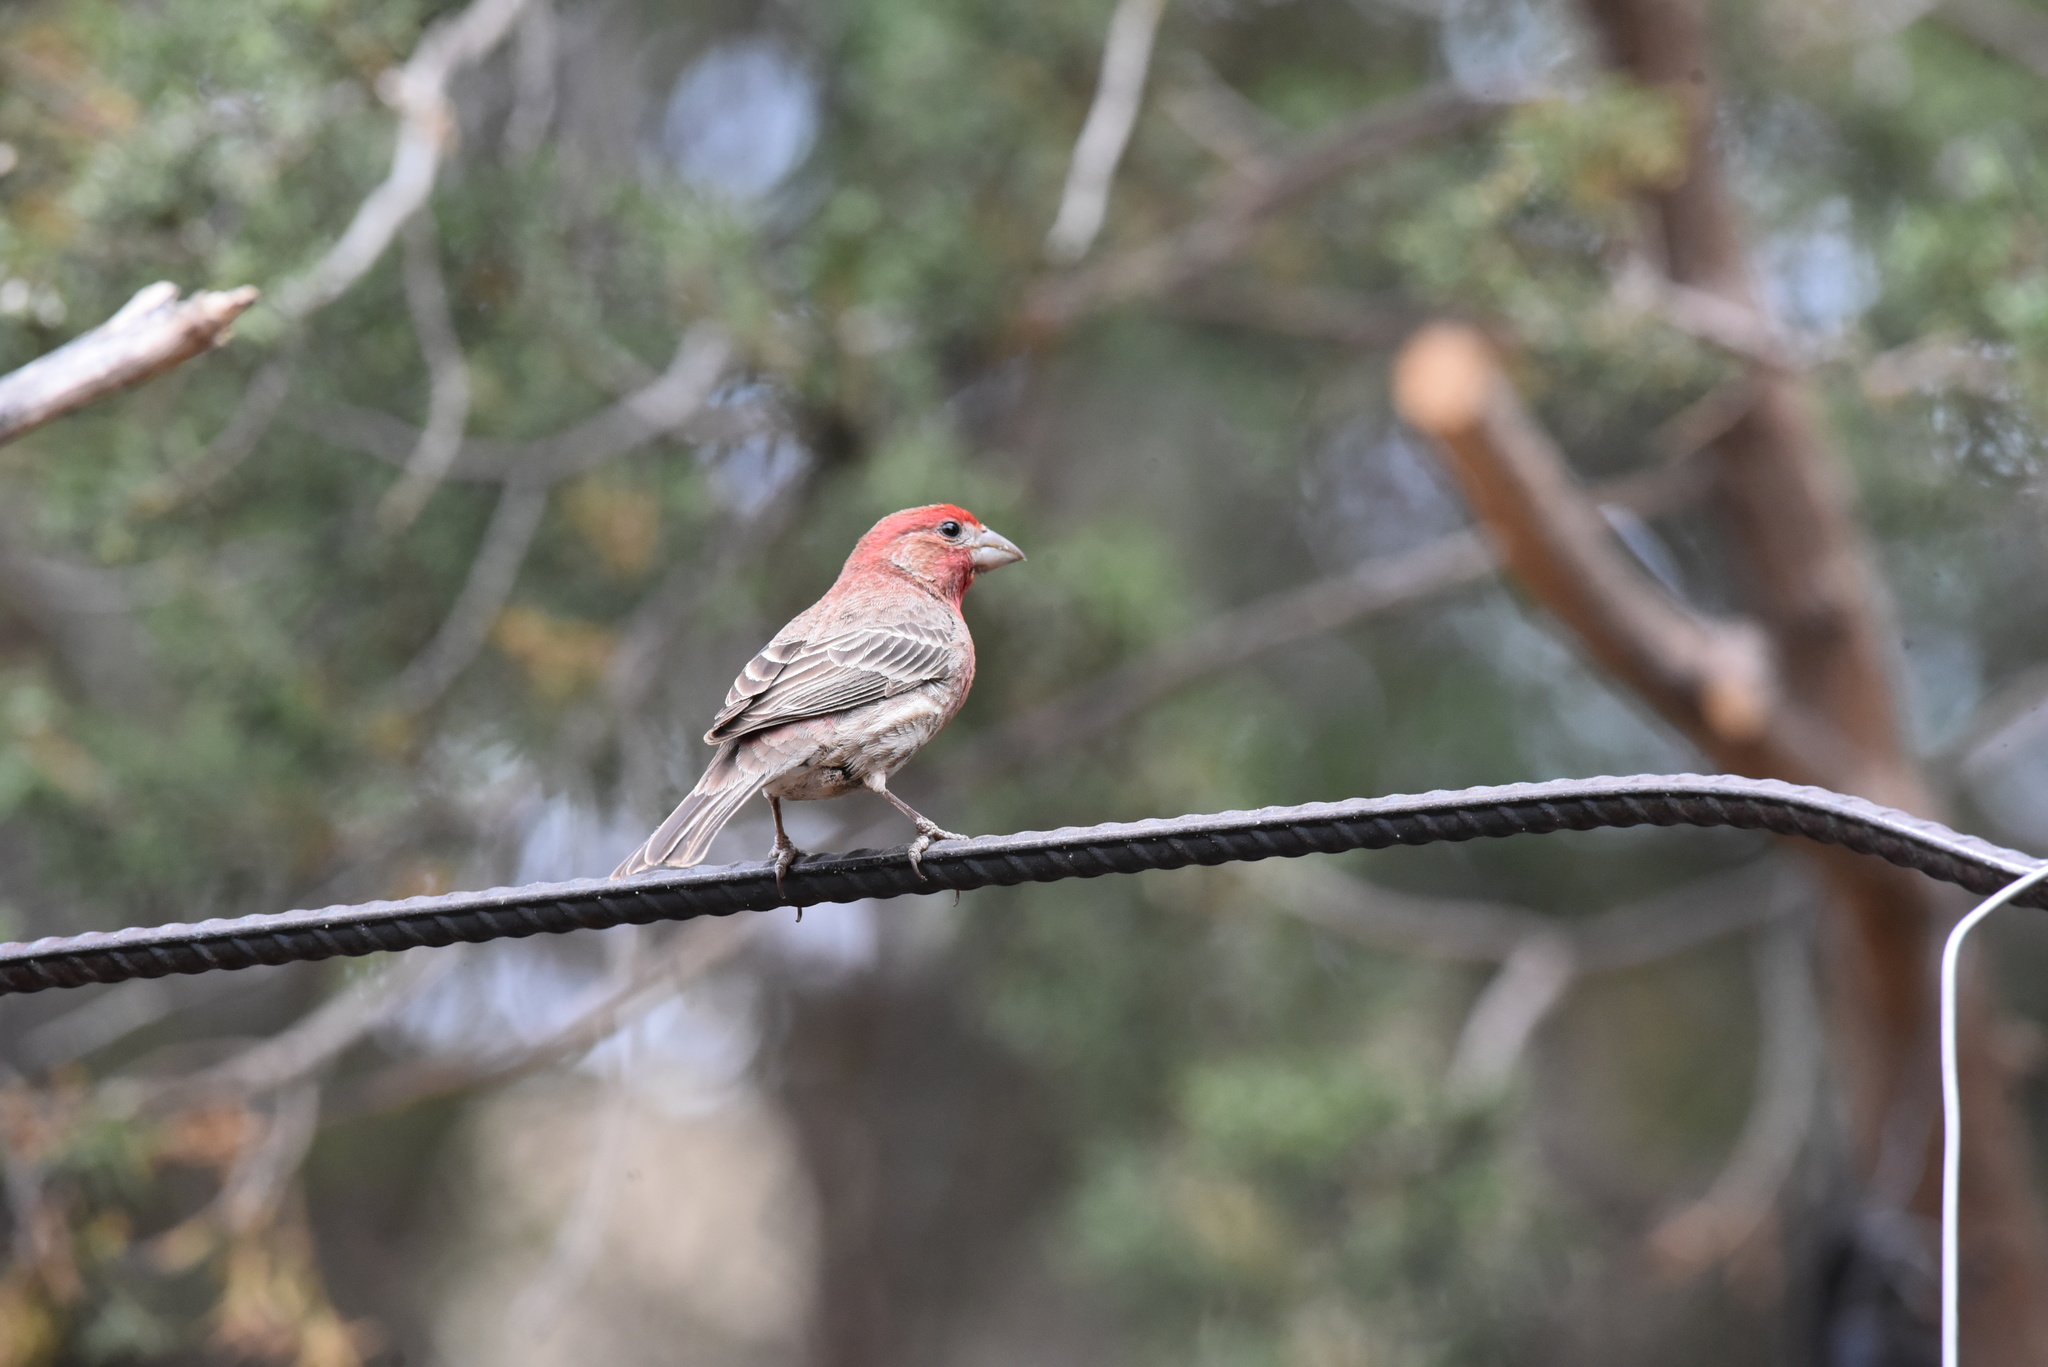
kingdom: Animalia
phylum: Chordata
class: Aves
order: Passeriformes
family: Fringillidae
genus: Haemorhous
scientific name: Haemorhous mexicanus
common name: House finch
